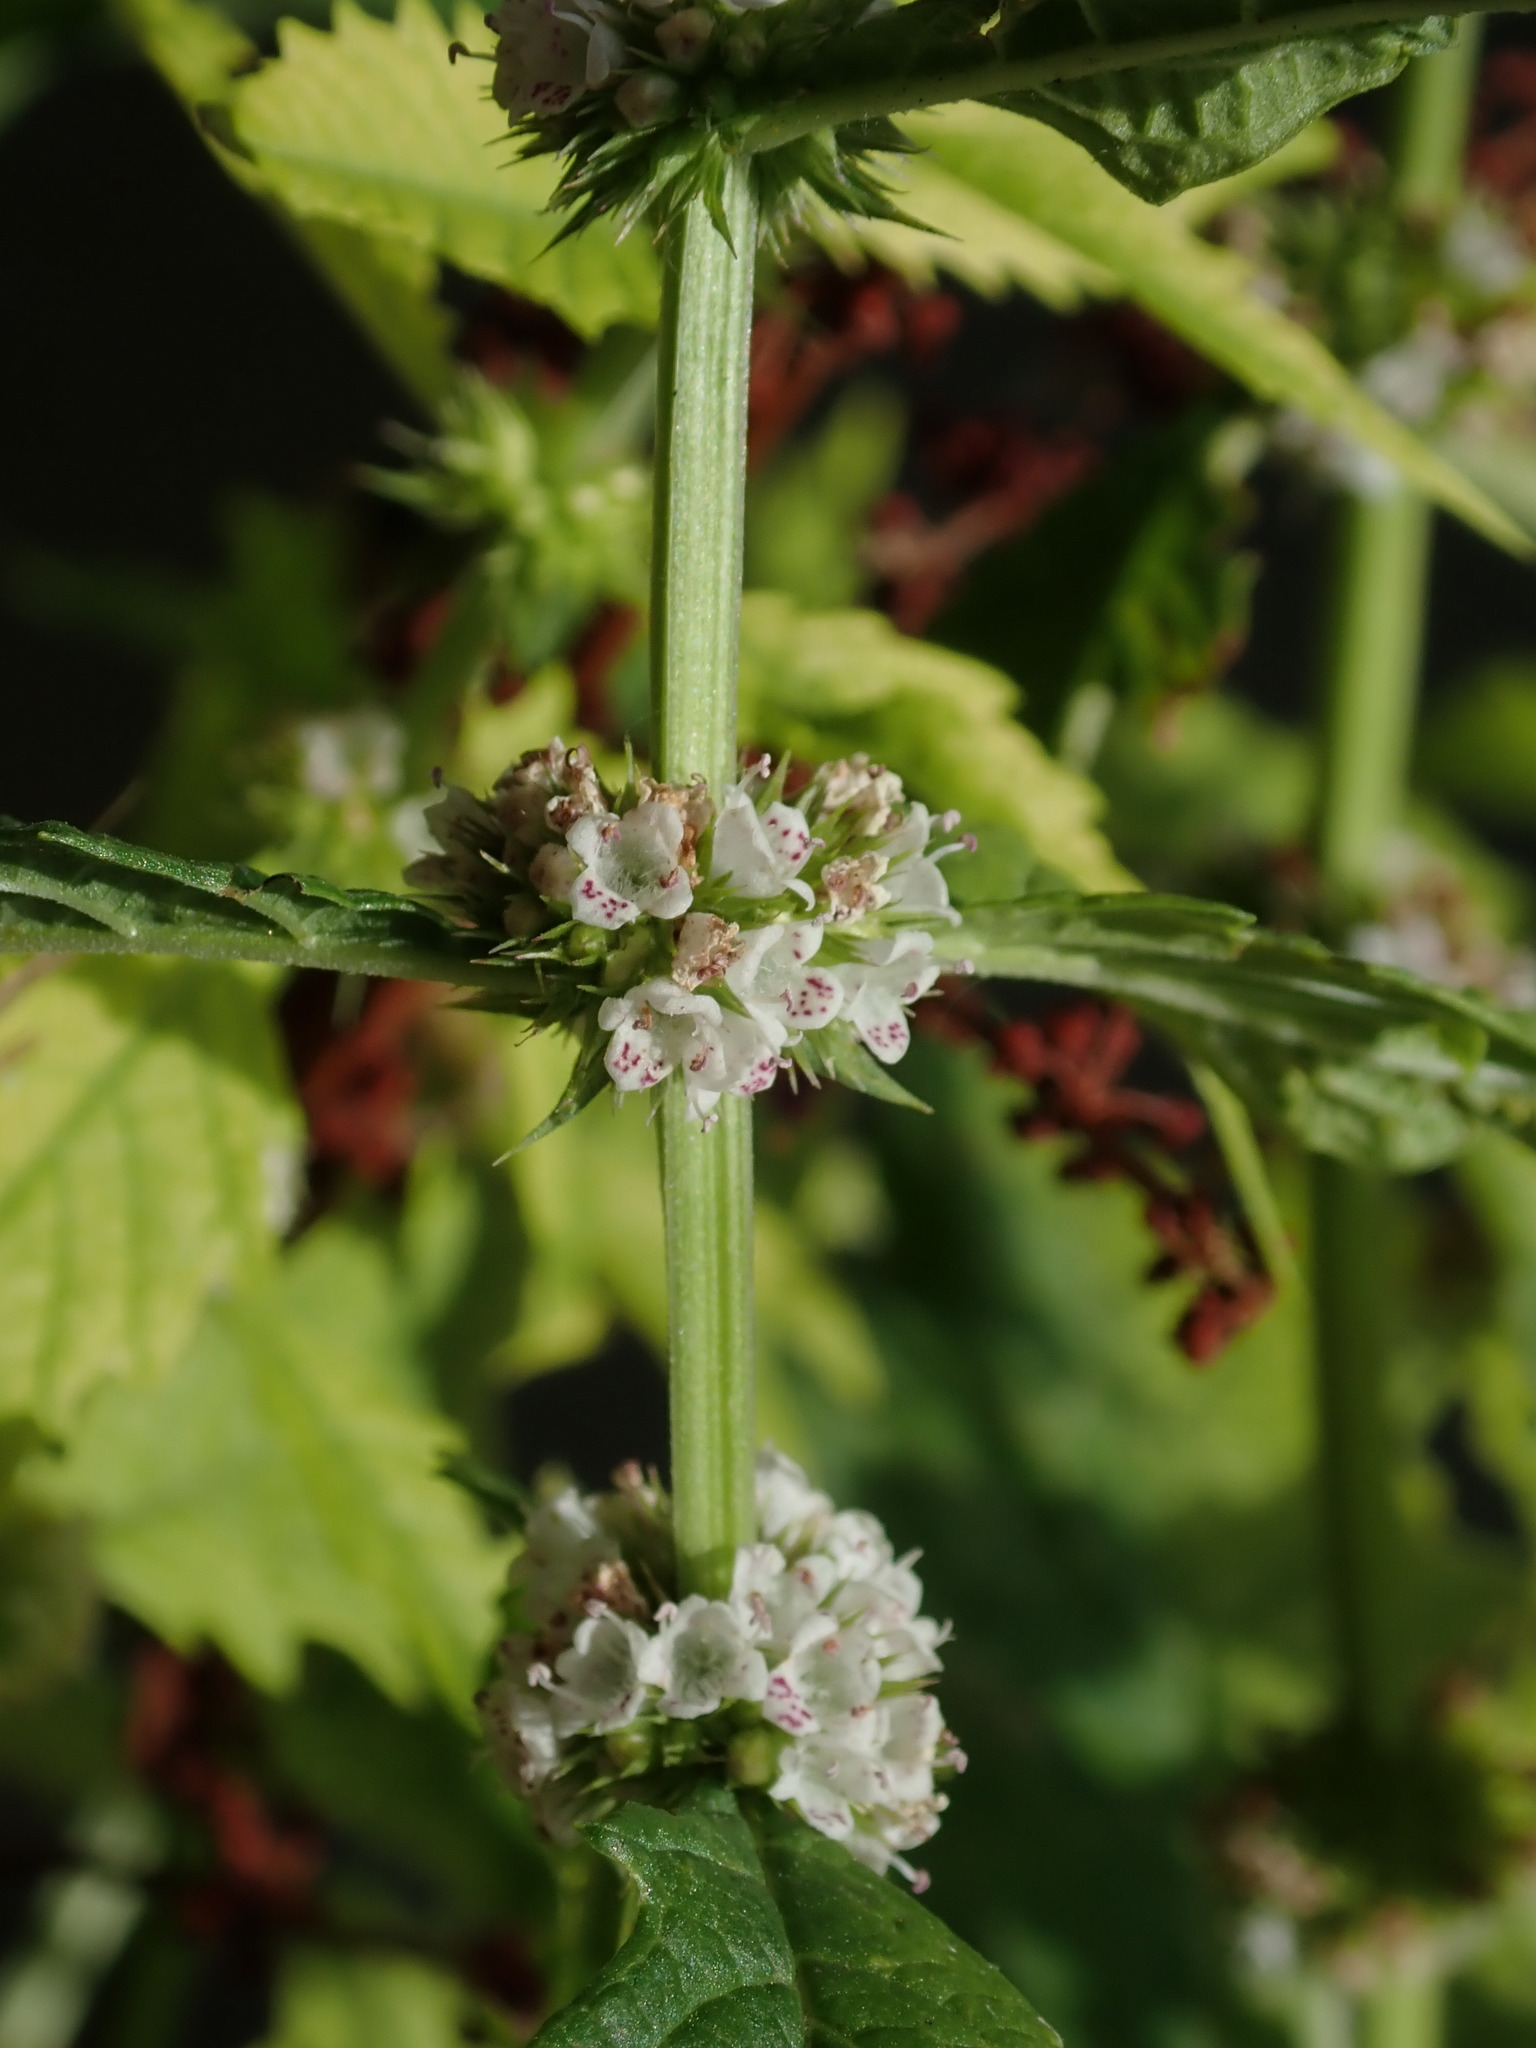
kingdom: Plantae
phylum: Tracheophyta
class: Magnoliopsida
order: Lamiales
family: Lamiaceae
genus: Lycopus
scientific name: Lycopus europaeus
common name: European bugleweed
